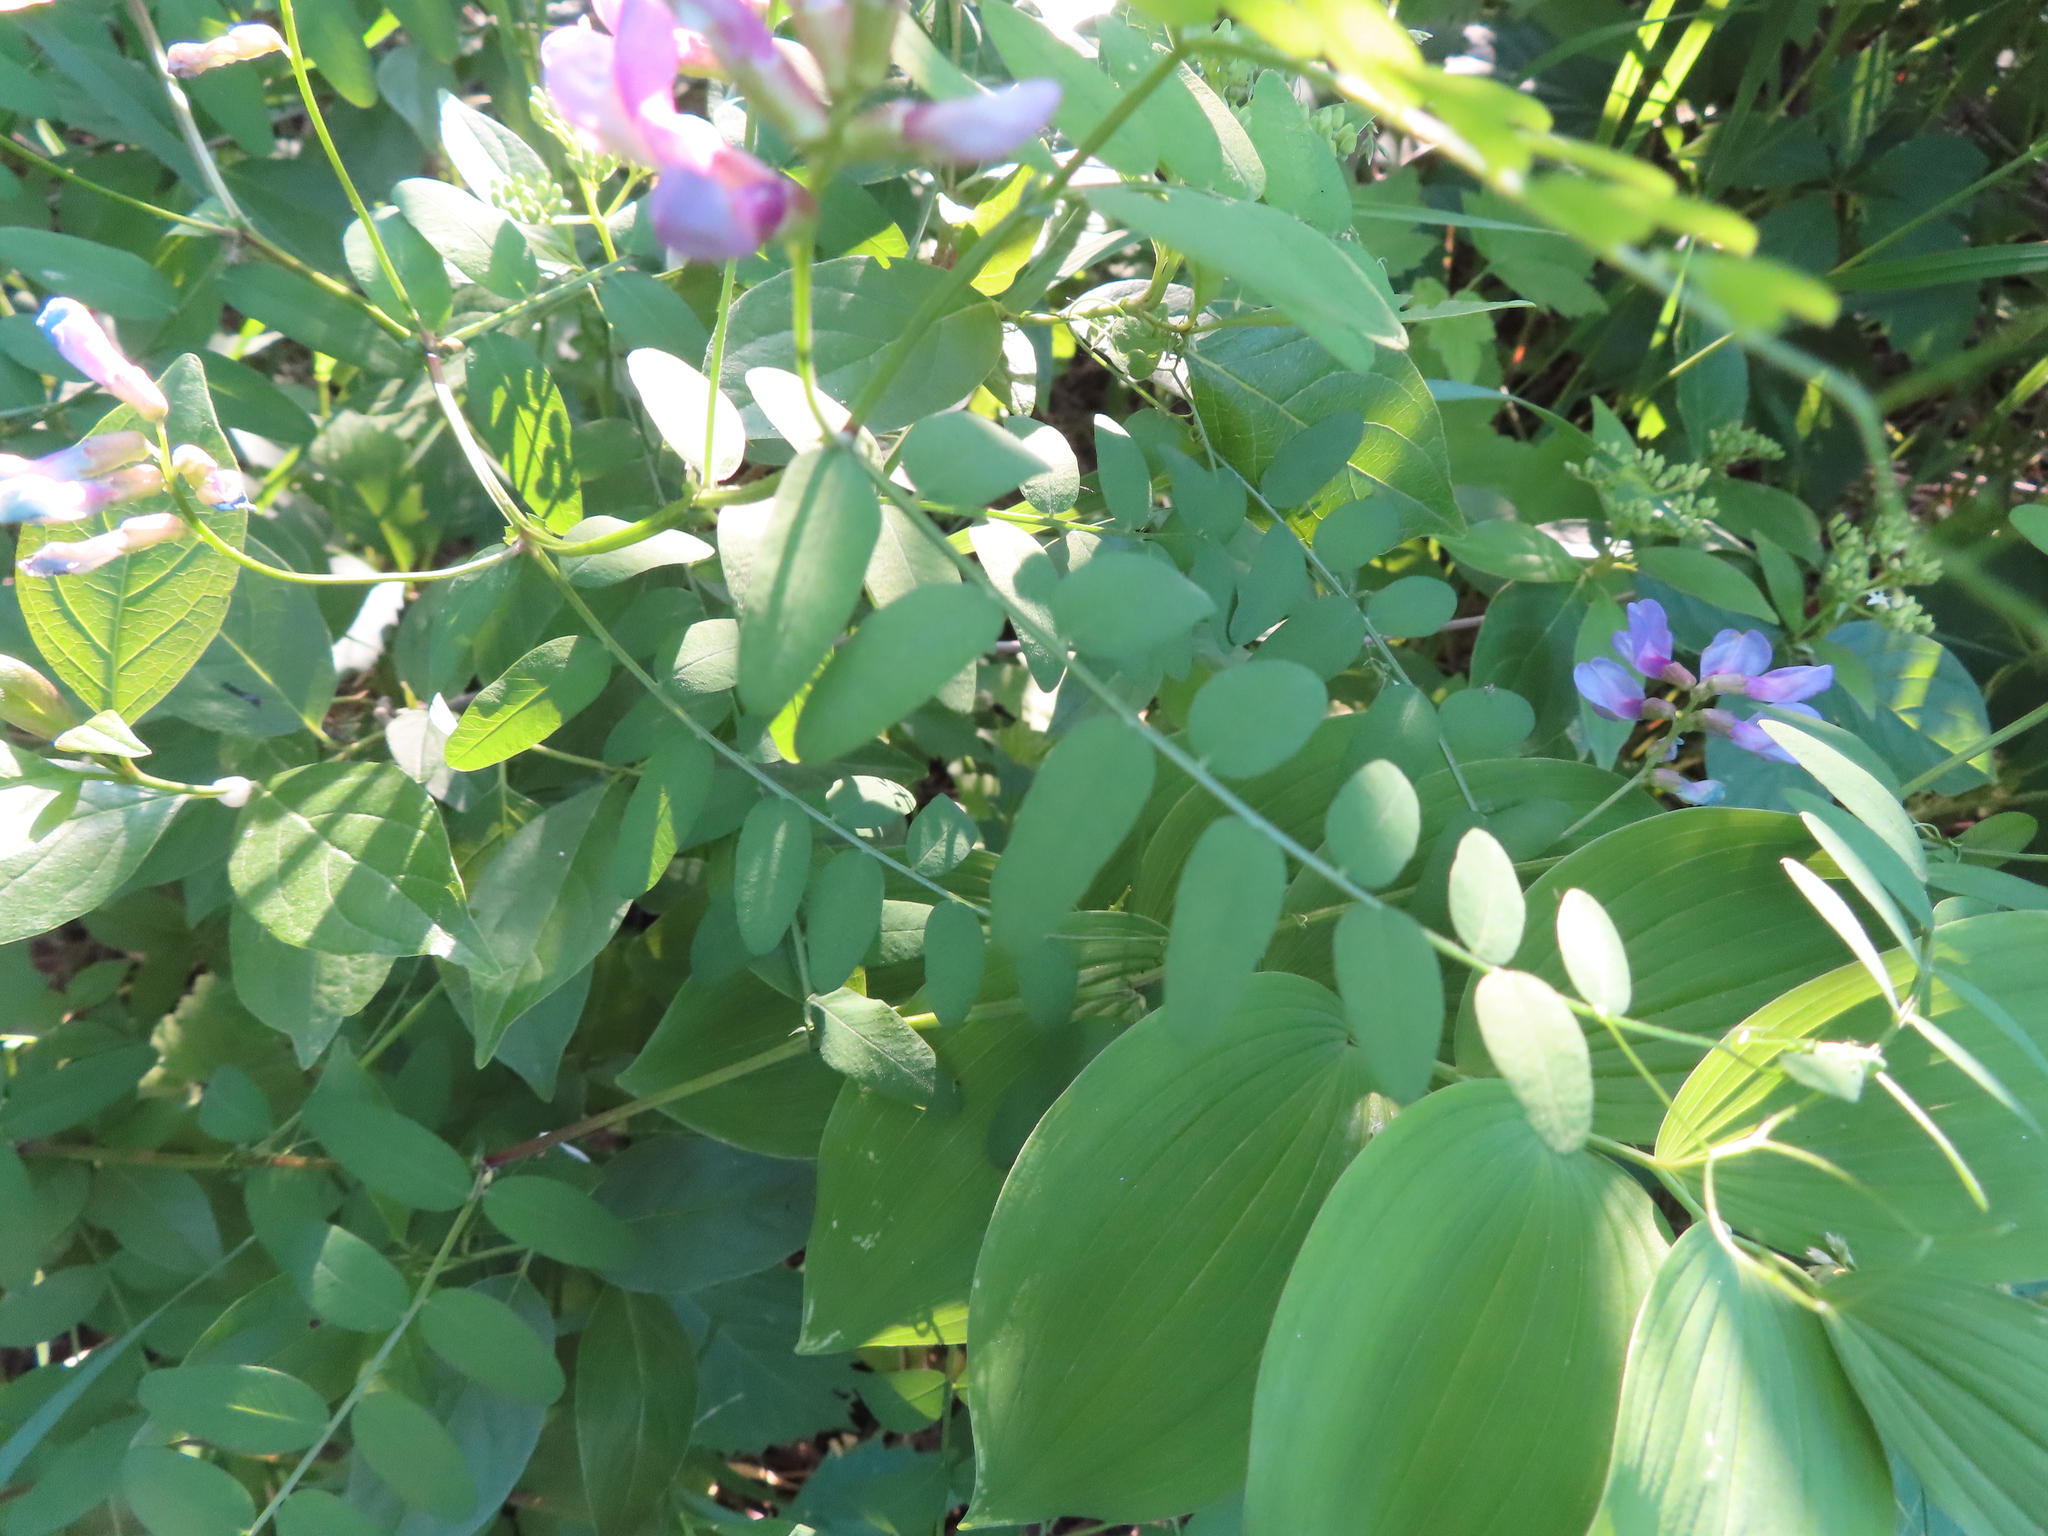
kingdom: Plantae
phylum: Tracheophyta
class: Magnoliopsida
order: Fabales
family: Fabaceae
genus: Vicia
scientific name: Vicia americana
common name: American vetch
